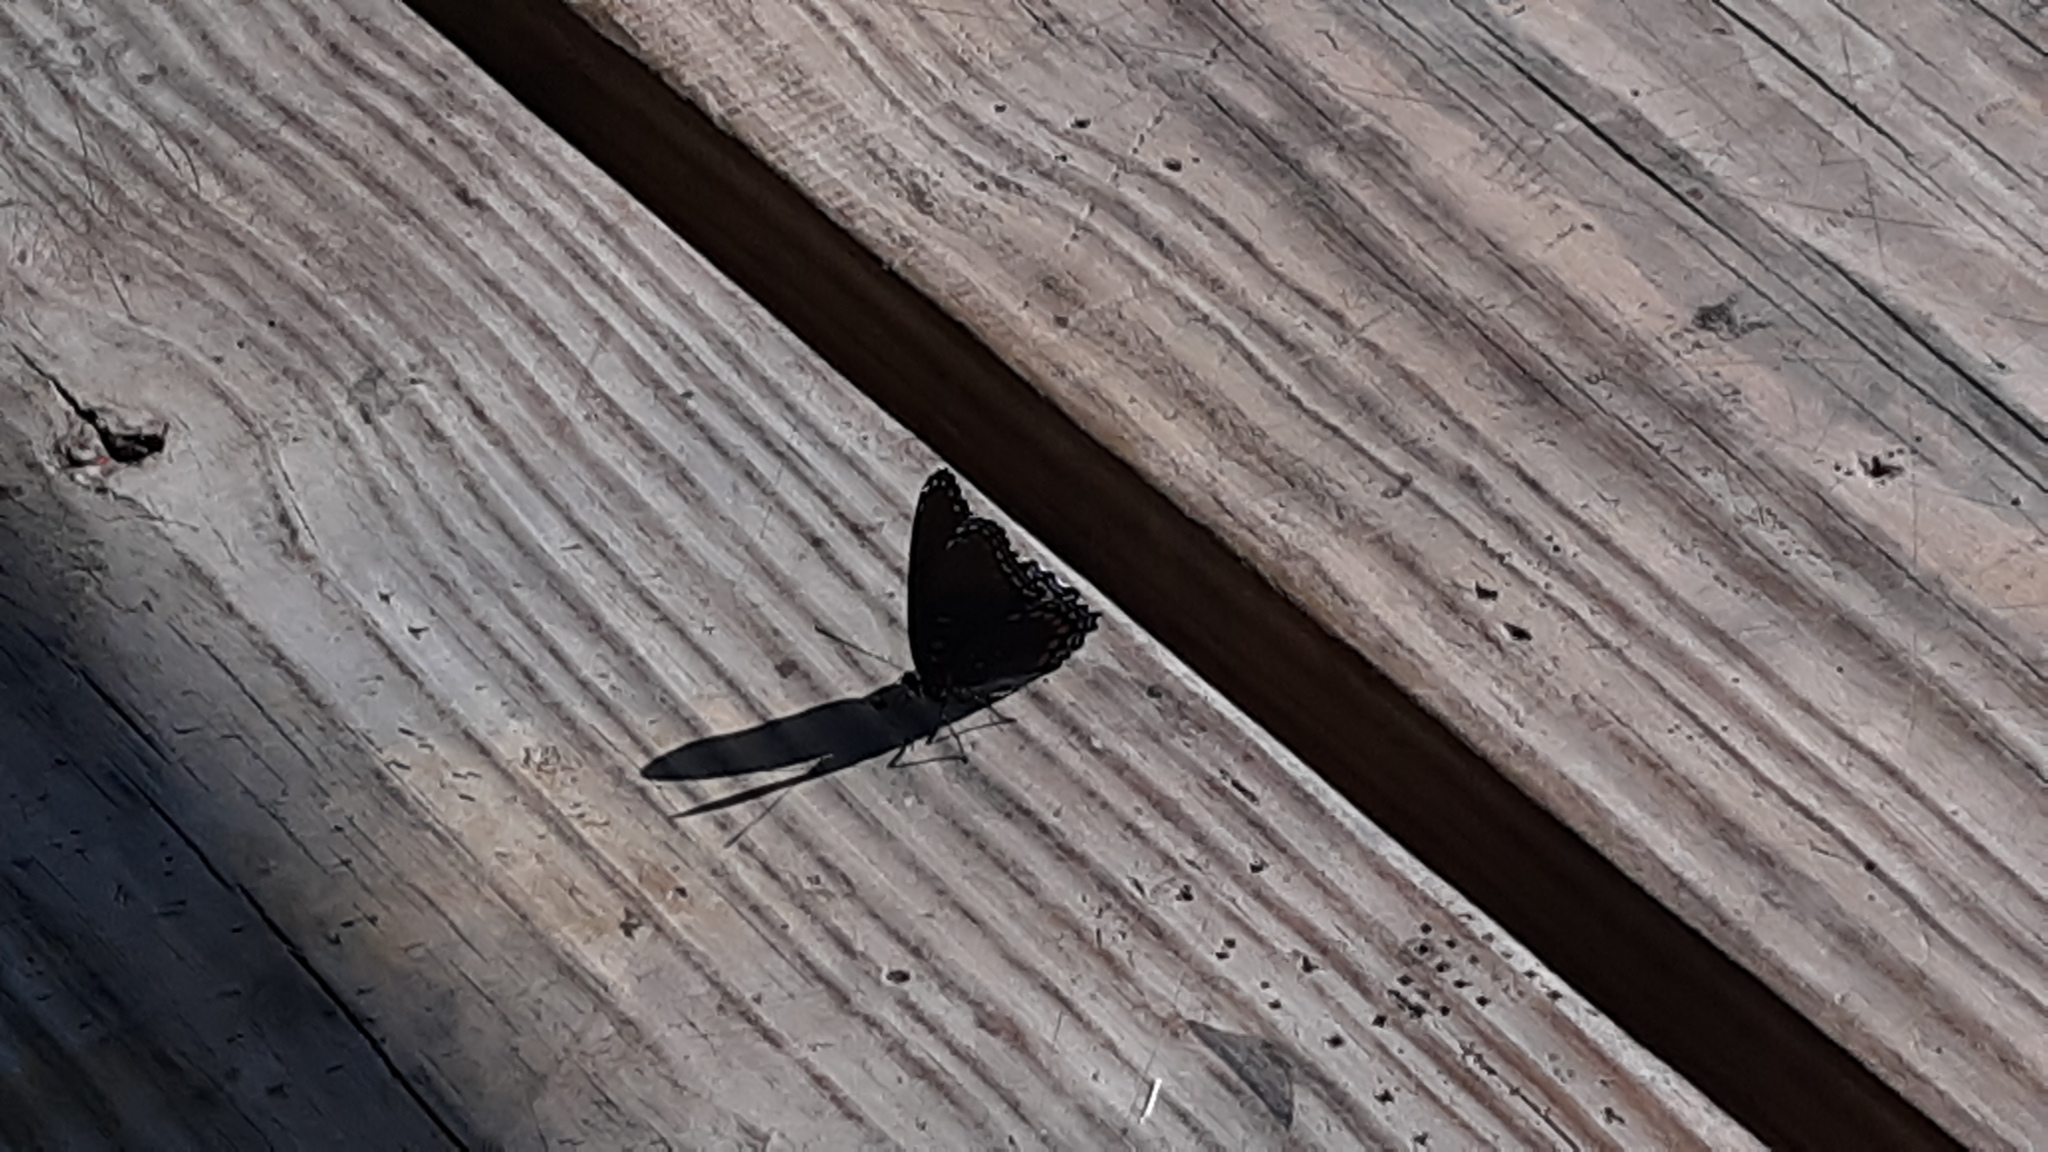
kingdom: Animalia
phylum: Arthropoda
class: Insecta
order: Lepidoptera
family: Nymphalidae
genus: Limenitis
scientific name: Limenitis astyanax
